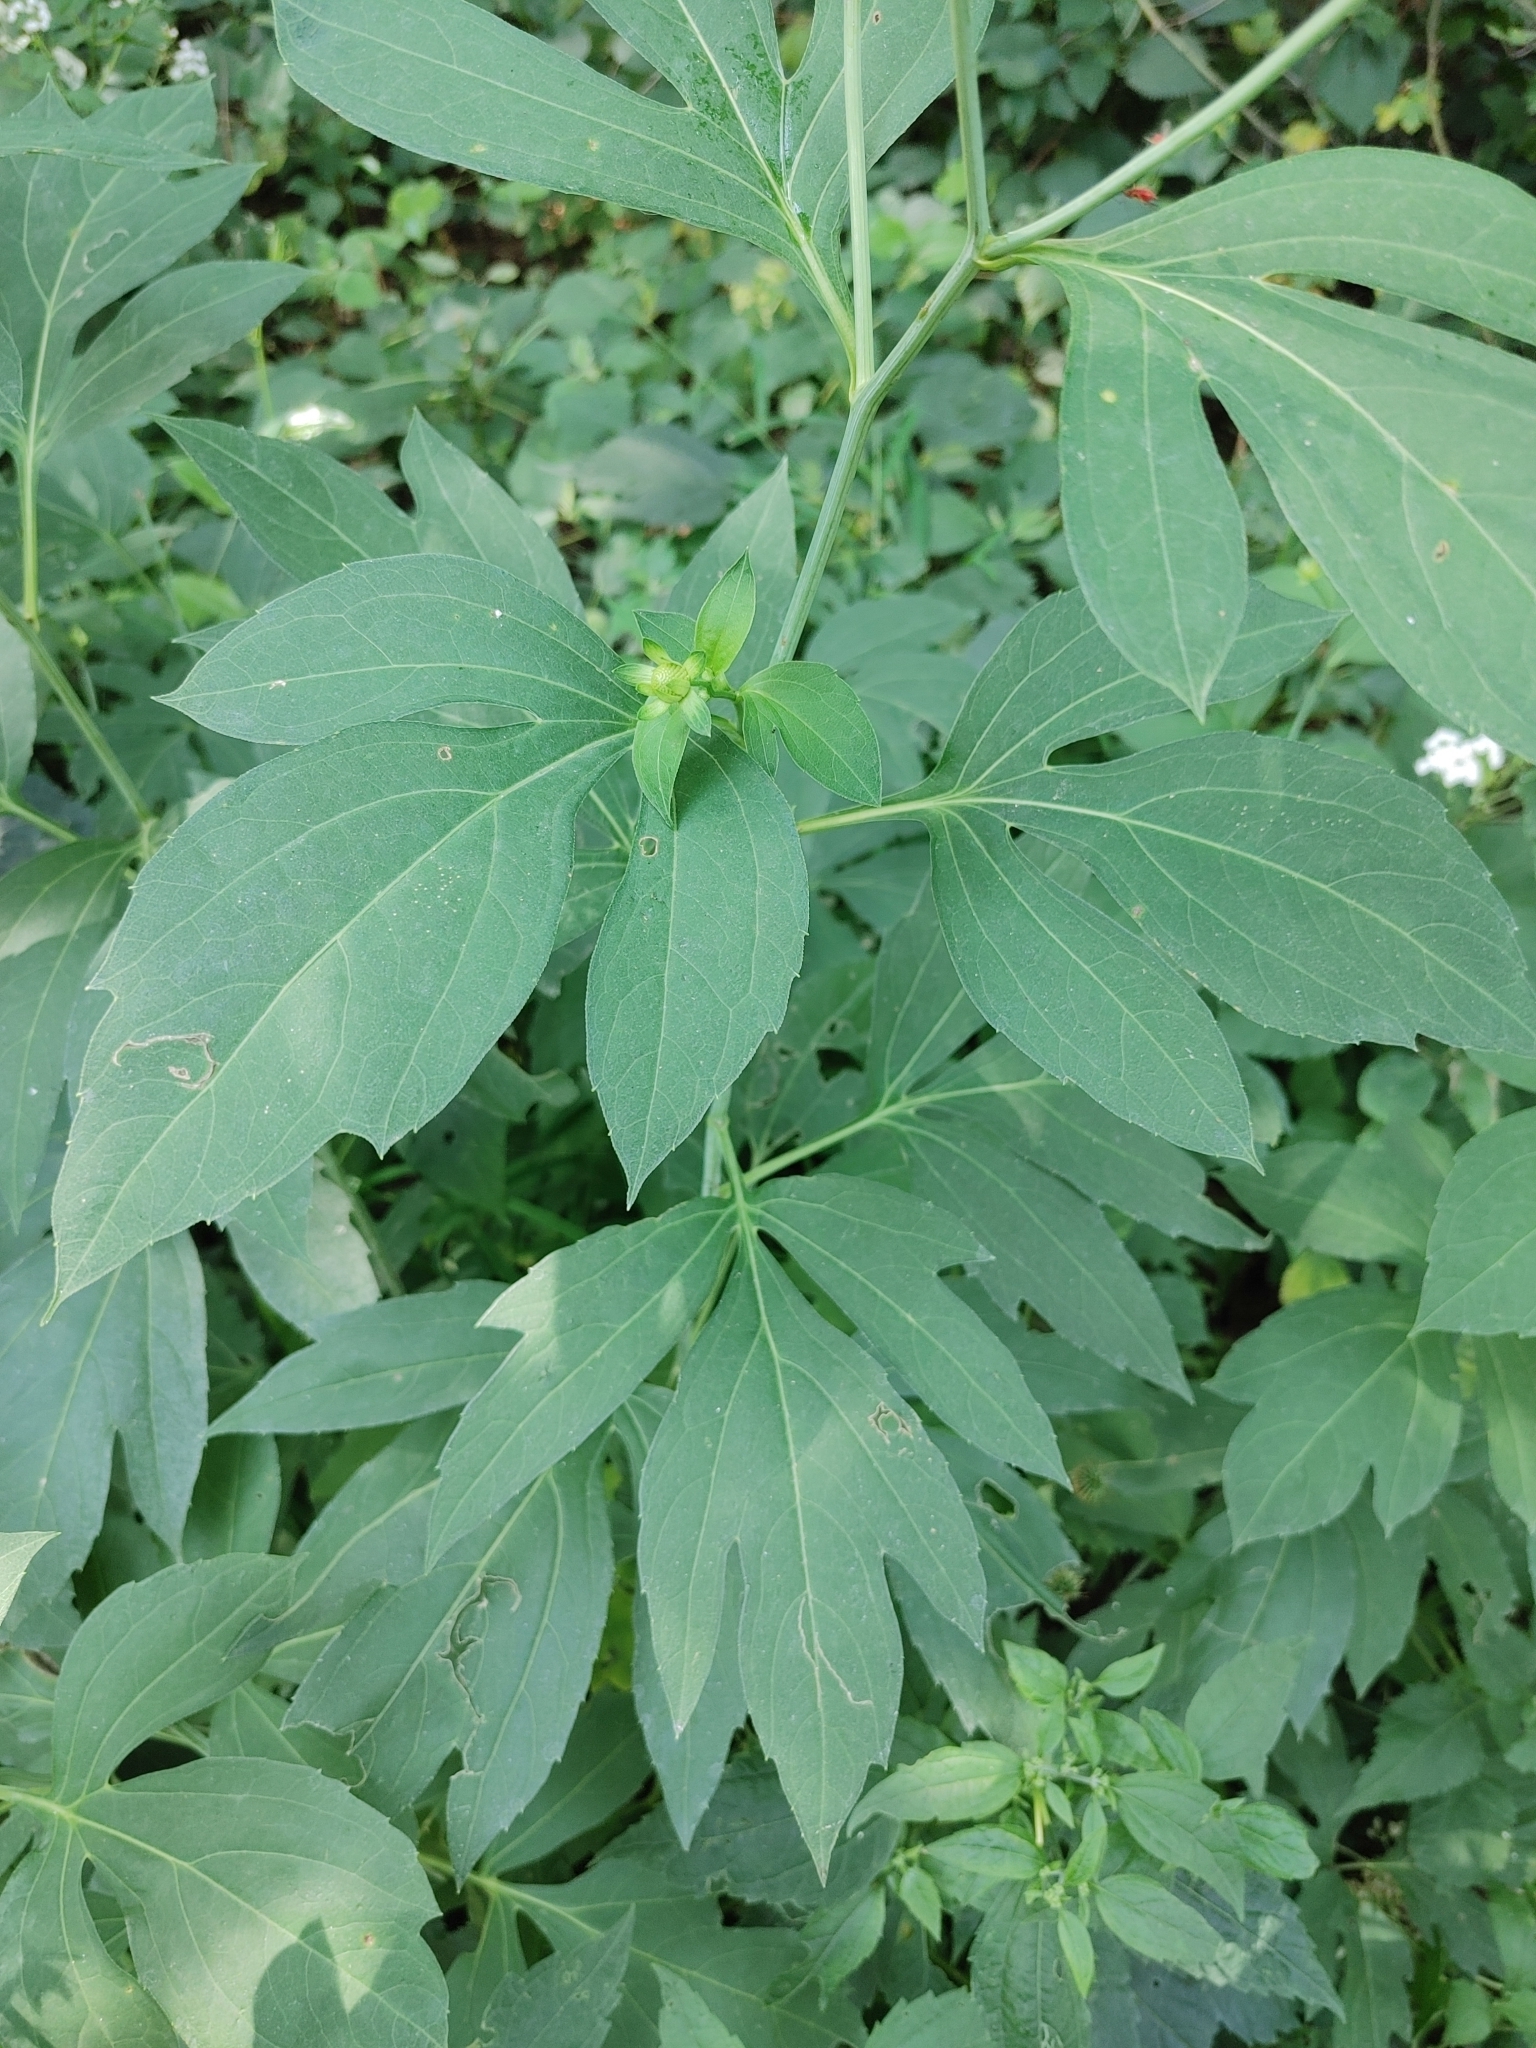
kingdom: Plantae
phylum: Tracheophyta
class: Magnoliopsida
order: Asterales
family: Asteraceae
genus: Rudbeckia
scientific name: Rudbeckia laciniata
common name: Coneflower
